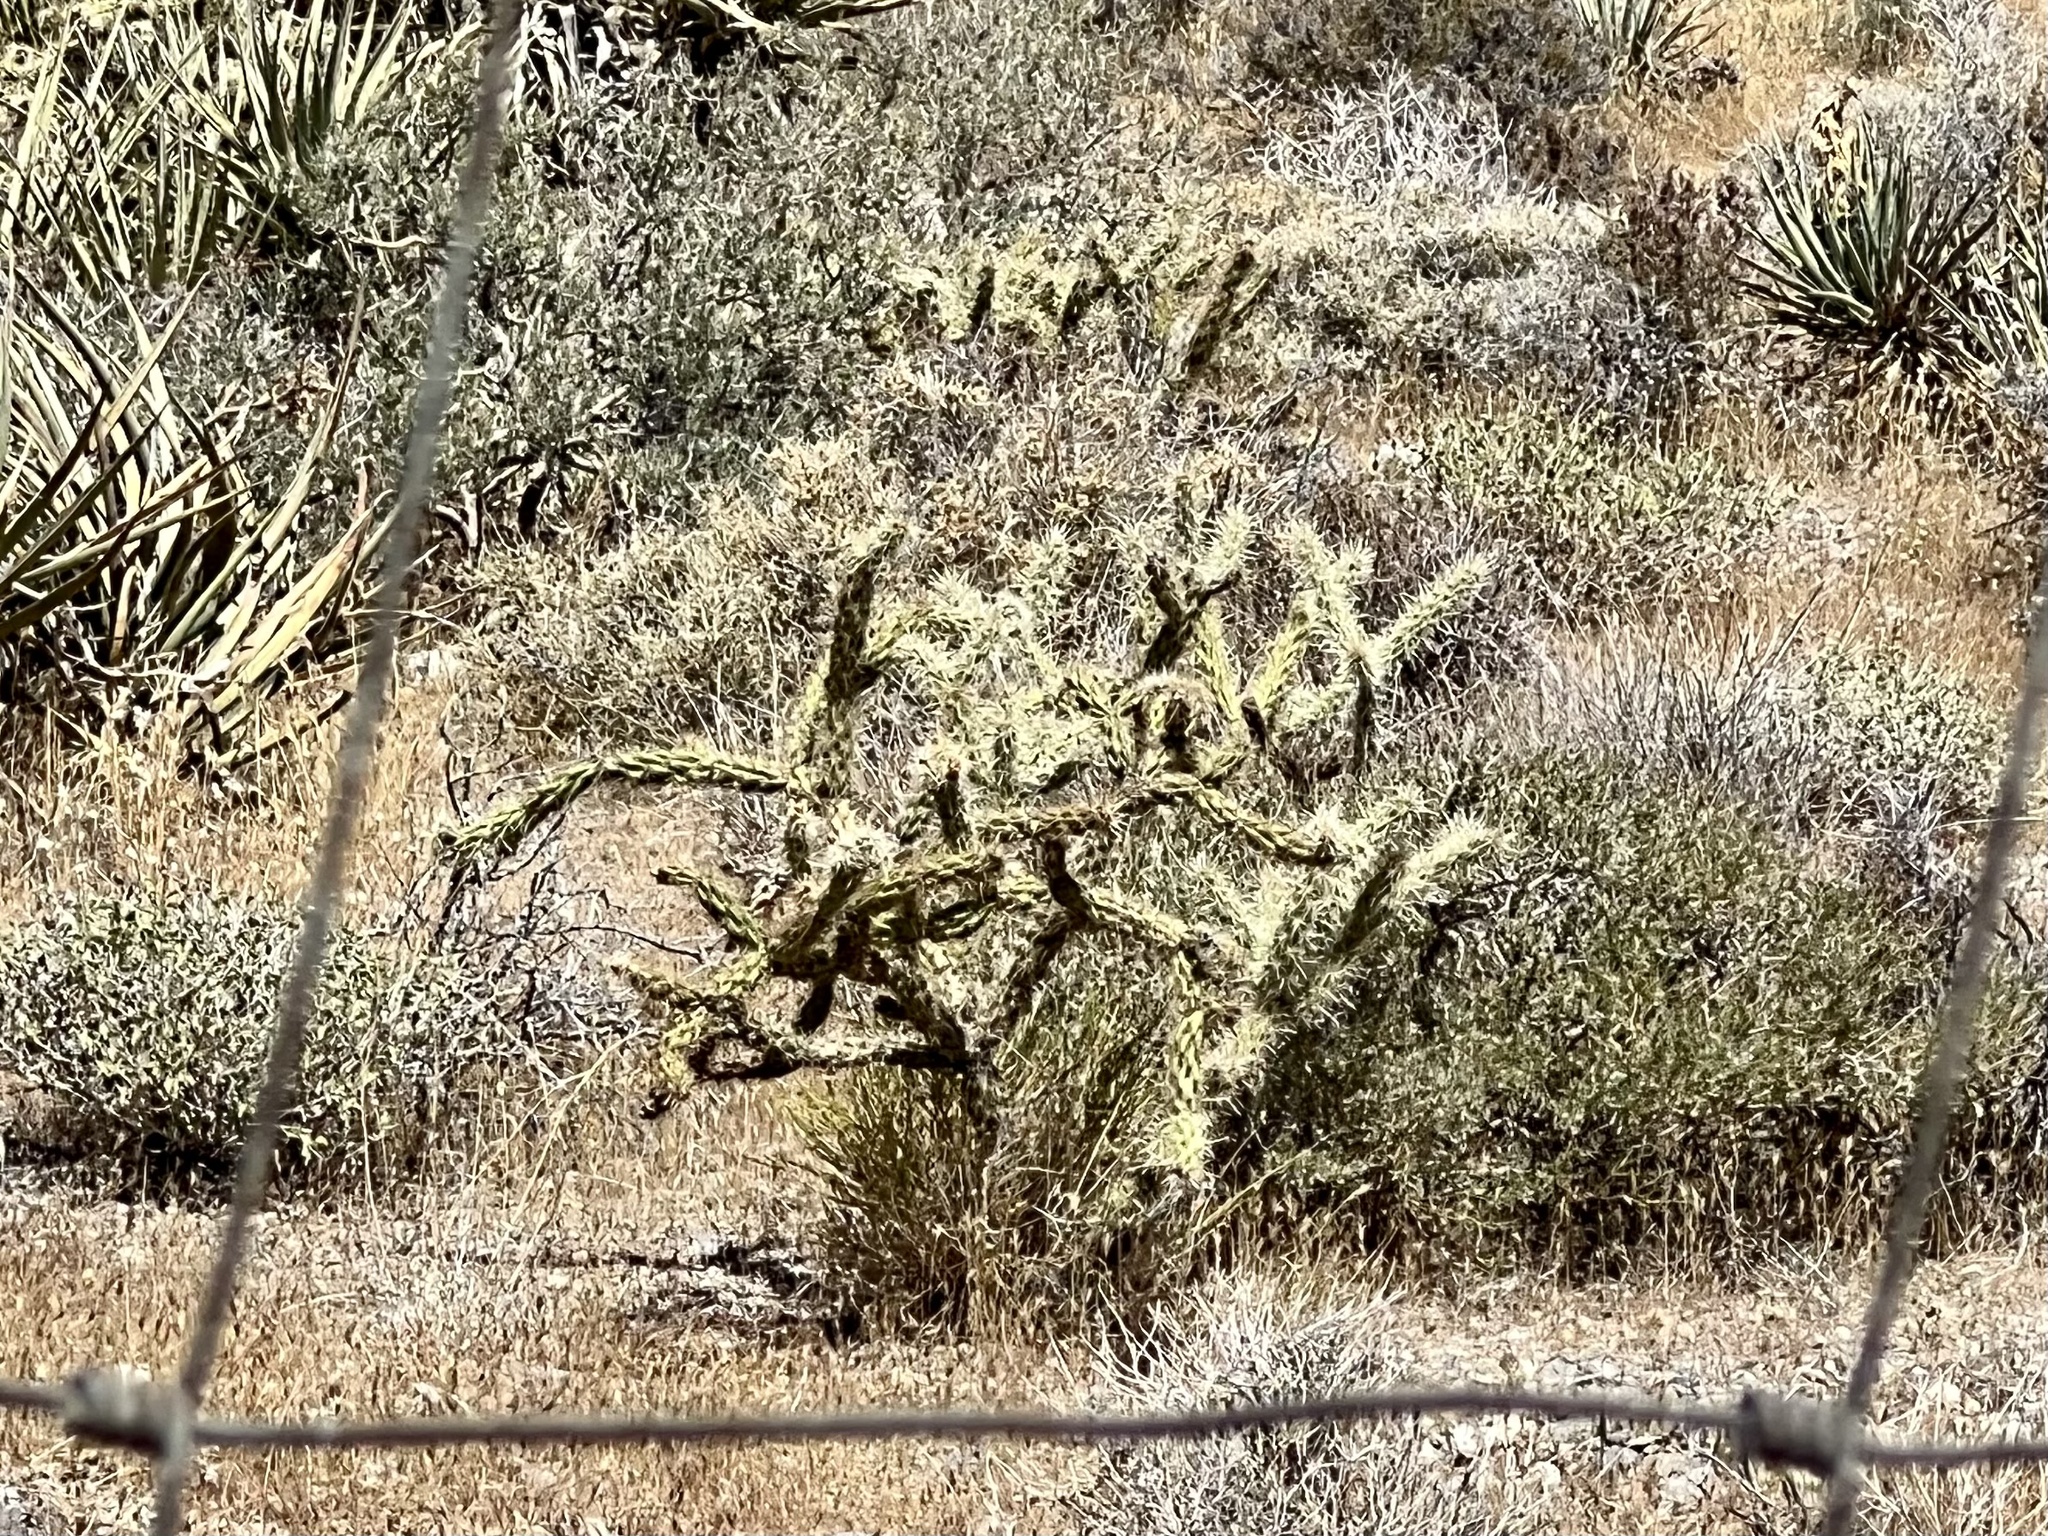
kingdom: Plantae
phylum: Tracheophyta
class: Magnoliopsida
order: Caryophyllales
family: Cactaceae
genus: Cylindropuntia
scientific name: Cylindropuntia acanthocarpa
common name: Buckhorn cholla
